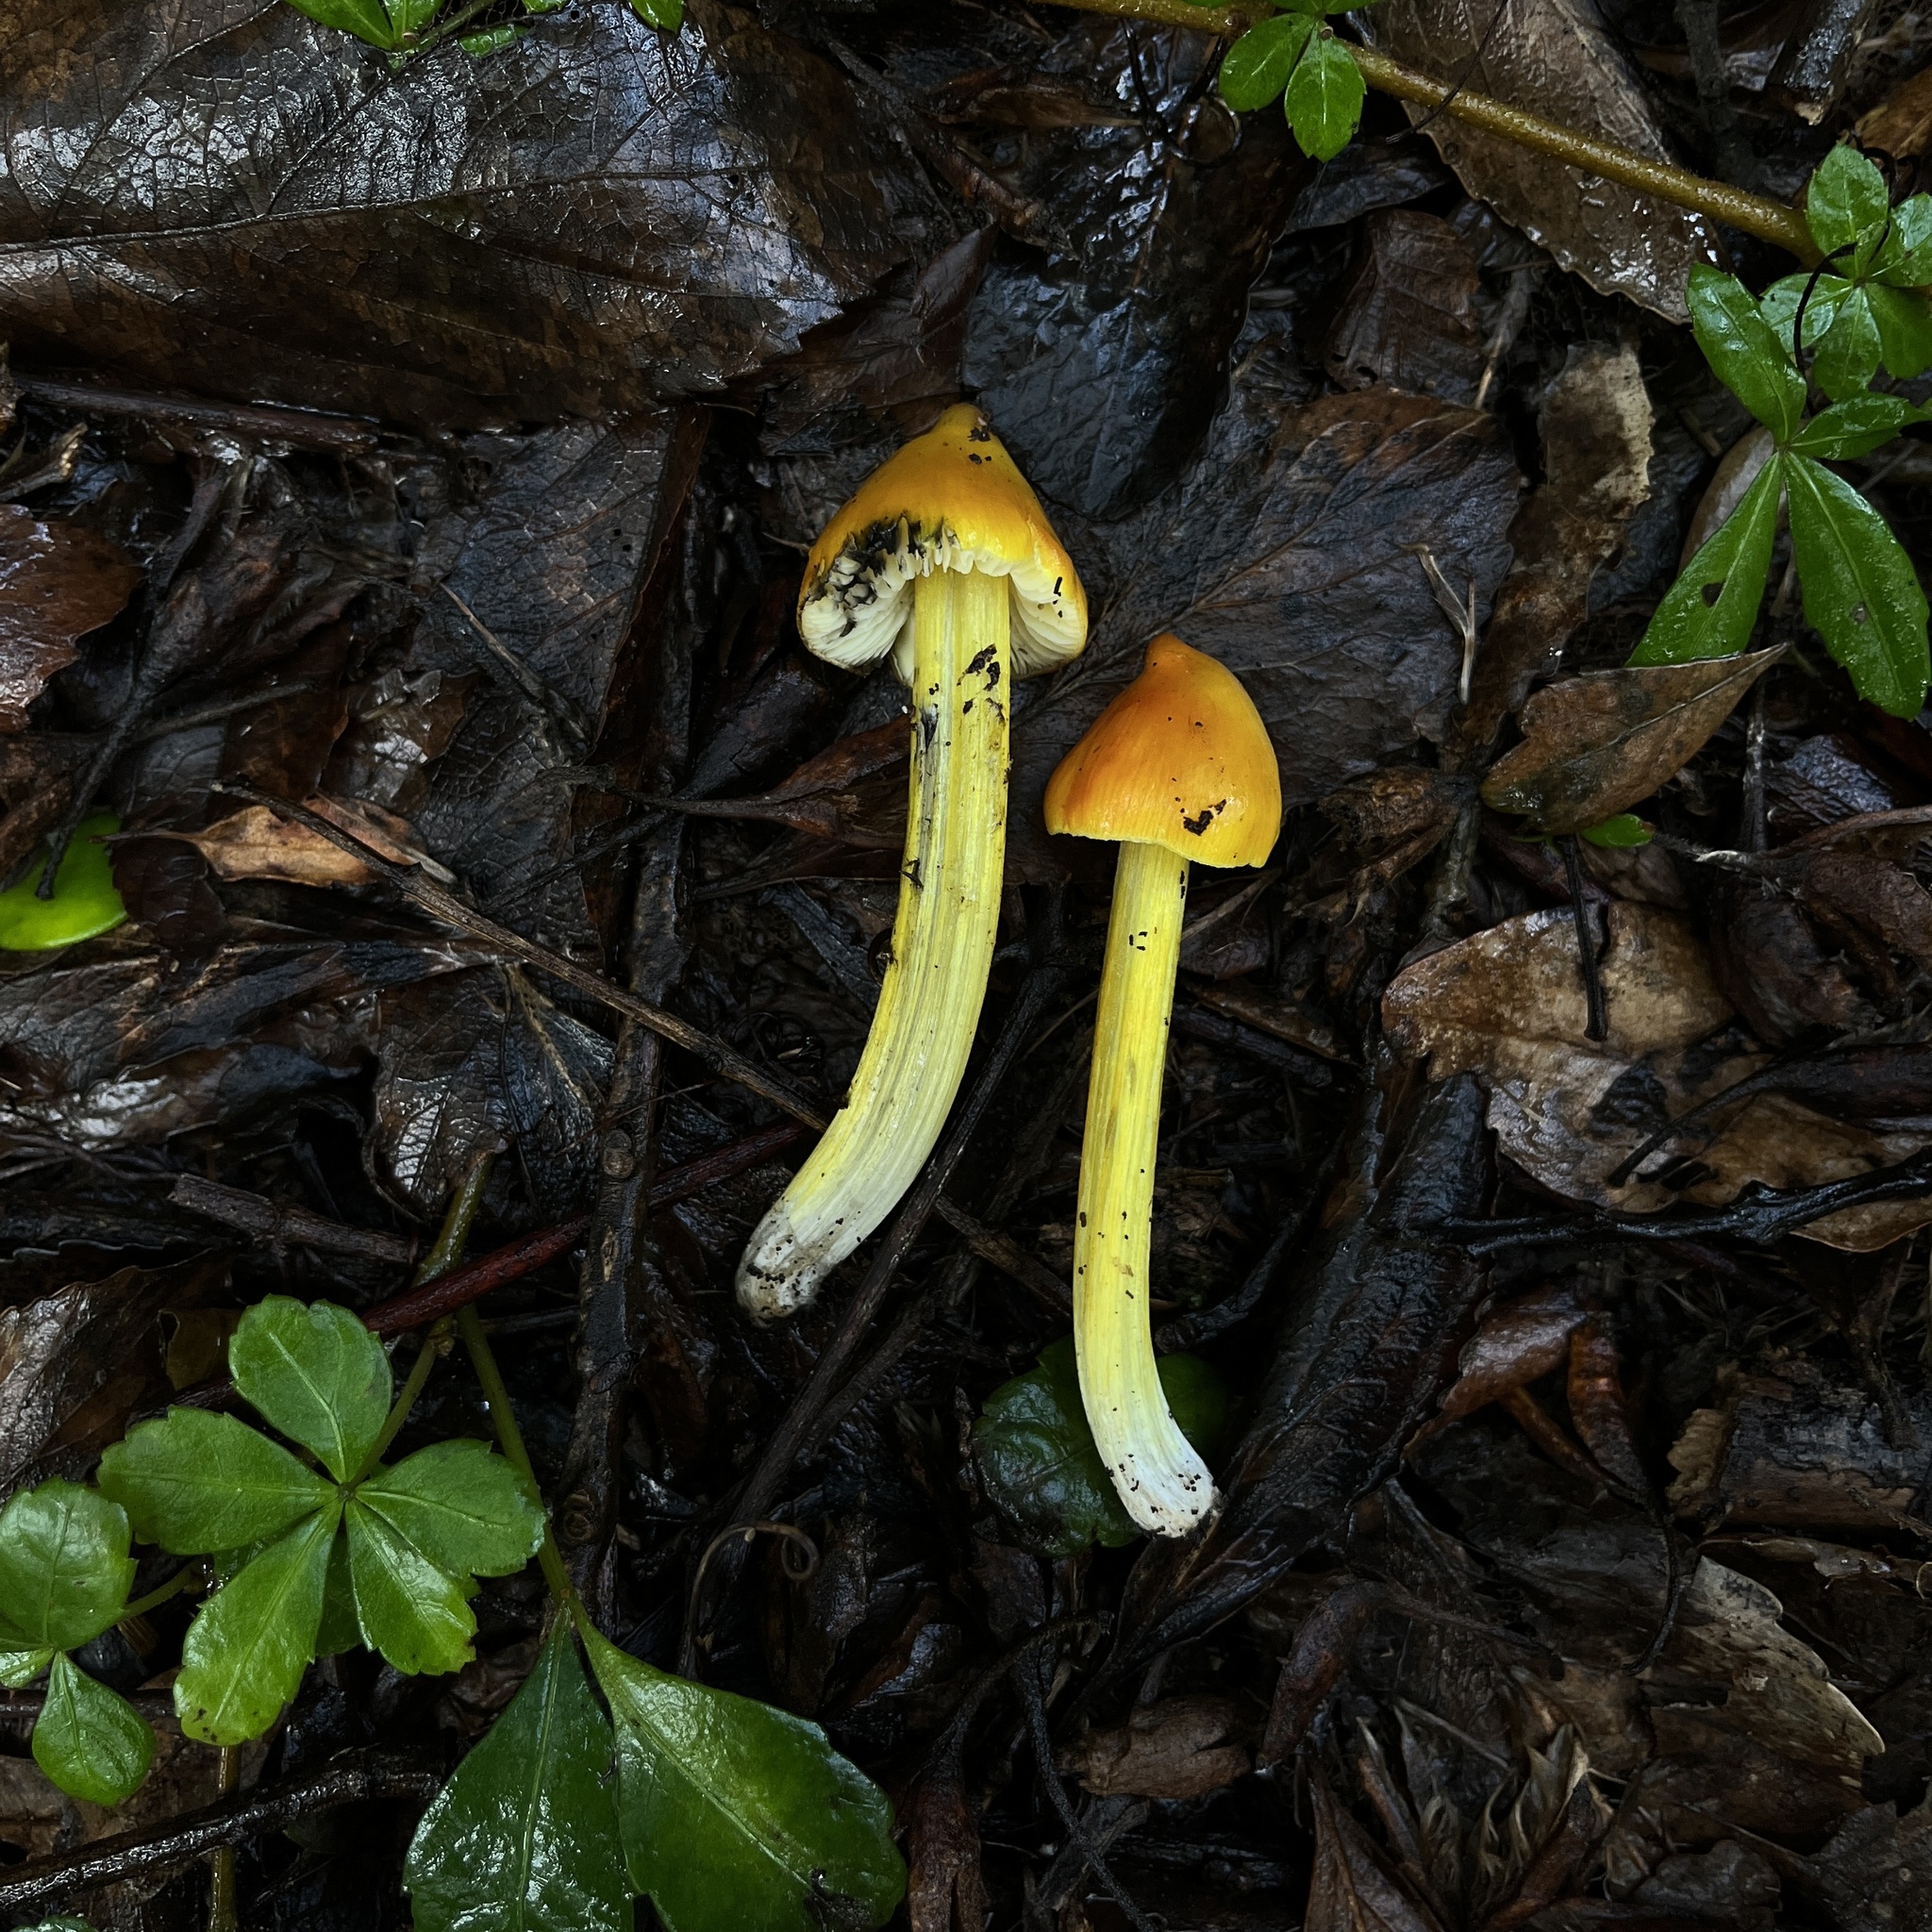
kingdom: Fungi
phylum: Basidiomycota
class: Agaricomycetes
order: Agaricales
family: Hygrophoraceae
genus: Hygrocybe
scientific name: Hygrocybe conica
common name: Blackening wax-cap
